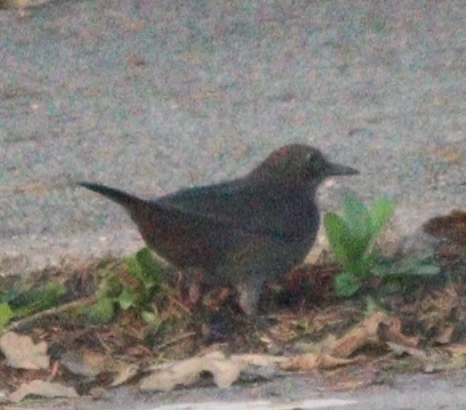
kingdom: Animalia
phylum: Chordata
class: Aves
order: Passeriformes
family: Turdidae
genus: Turdus
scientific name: Turdus merula
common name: Common blackbird
